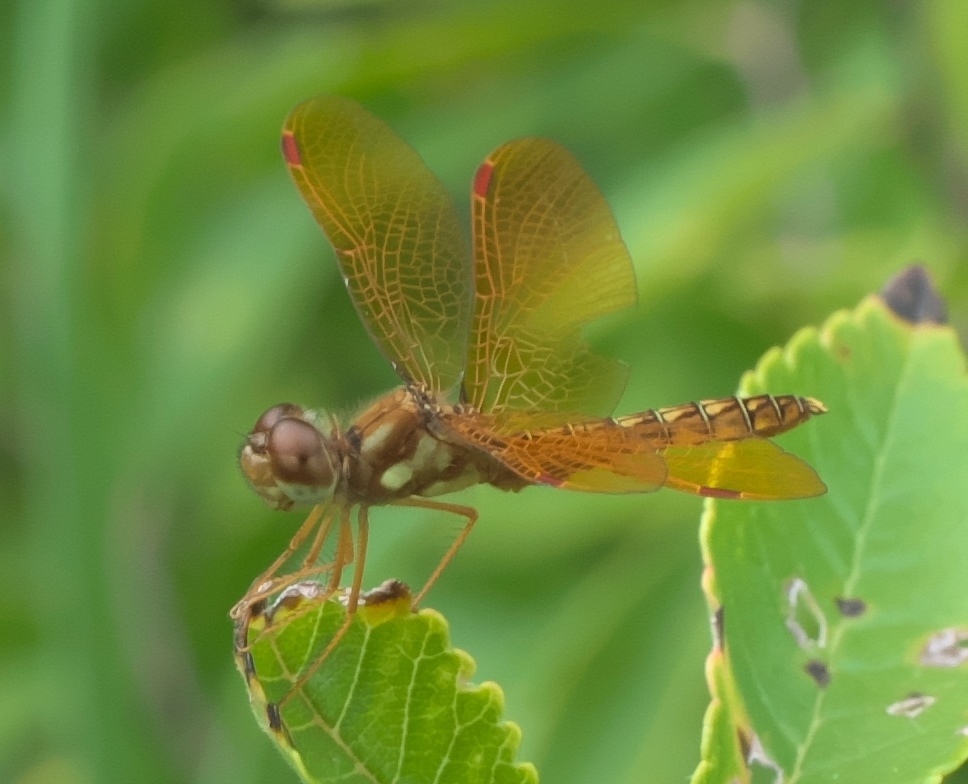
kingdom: Animalia
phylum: Arthropoda
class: Insecta
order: Odonata
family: Libellulidae
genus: Perithemis
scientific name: Perithemis tenera
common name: Eastern amberwing
